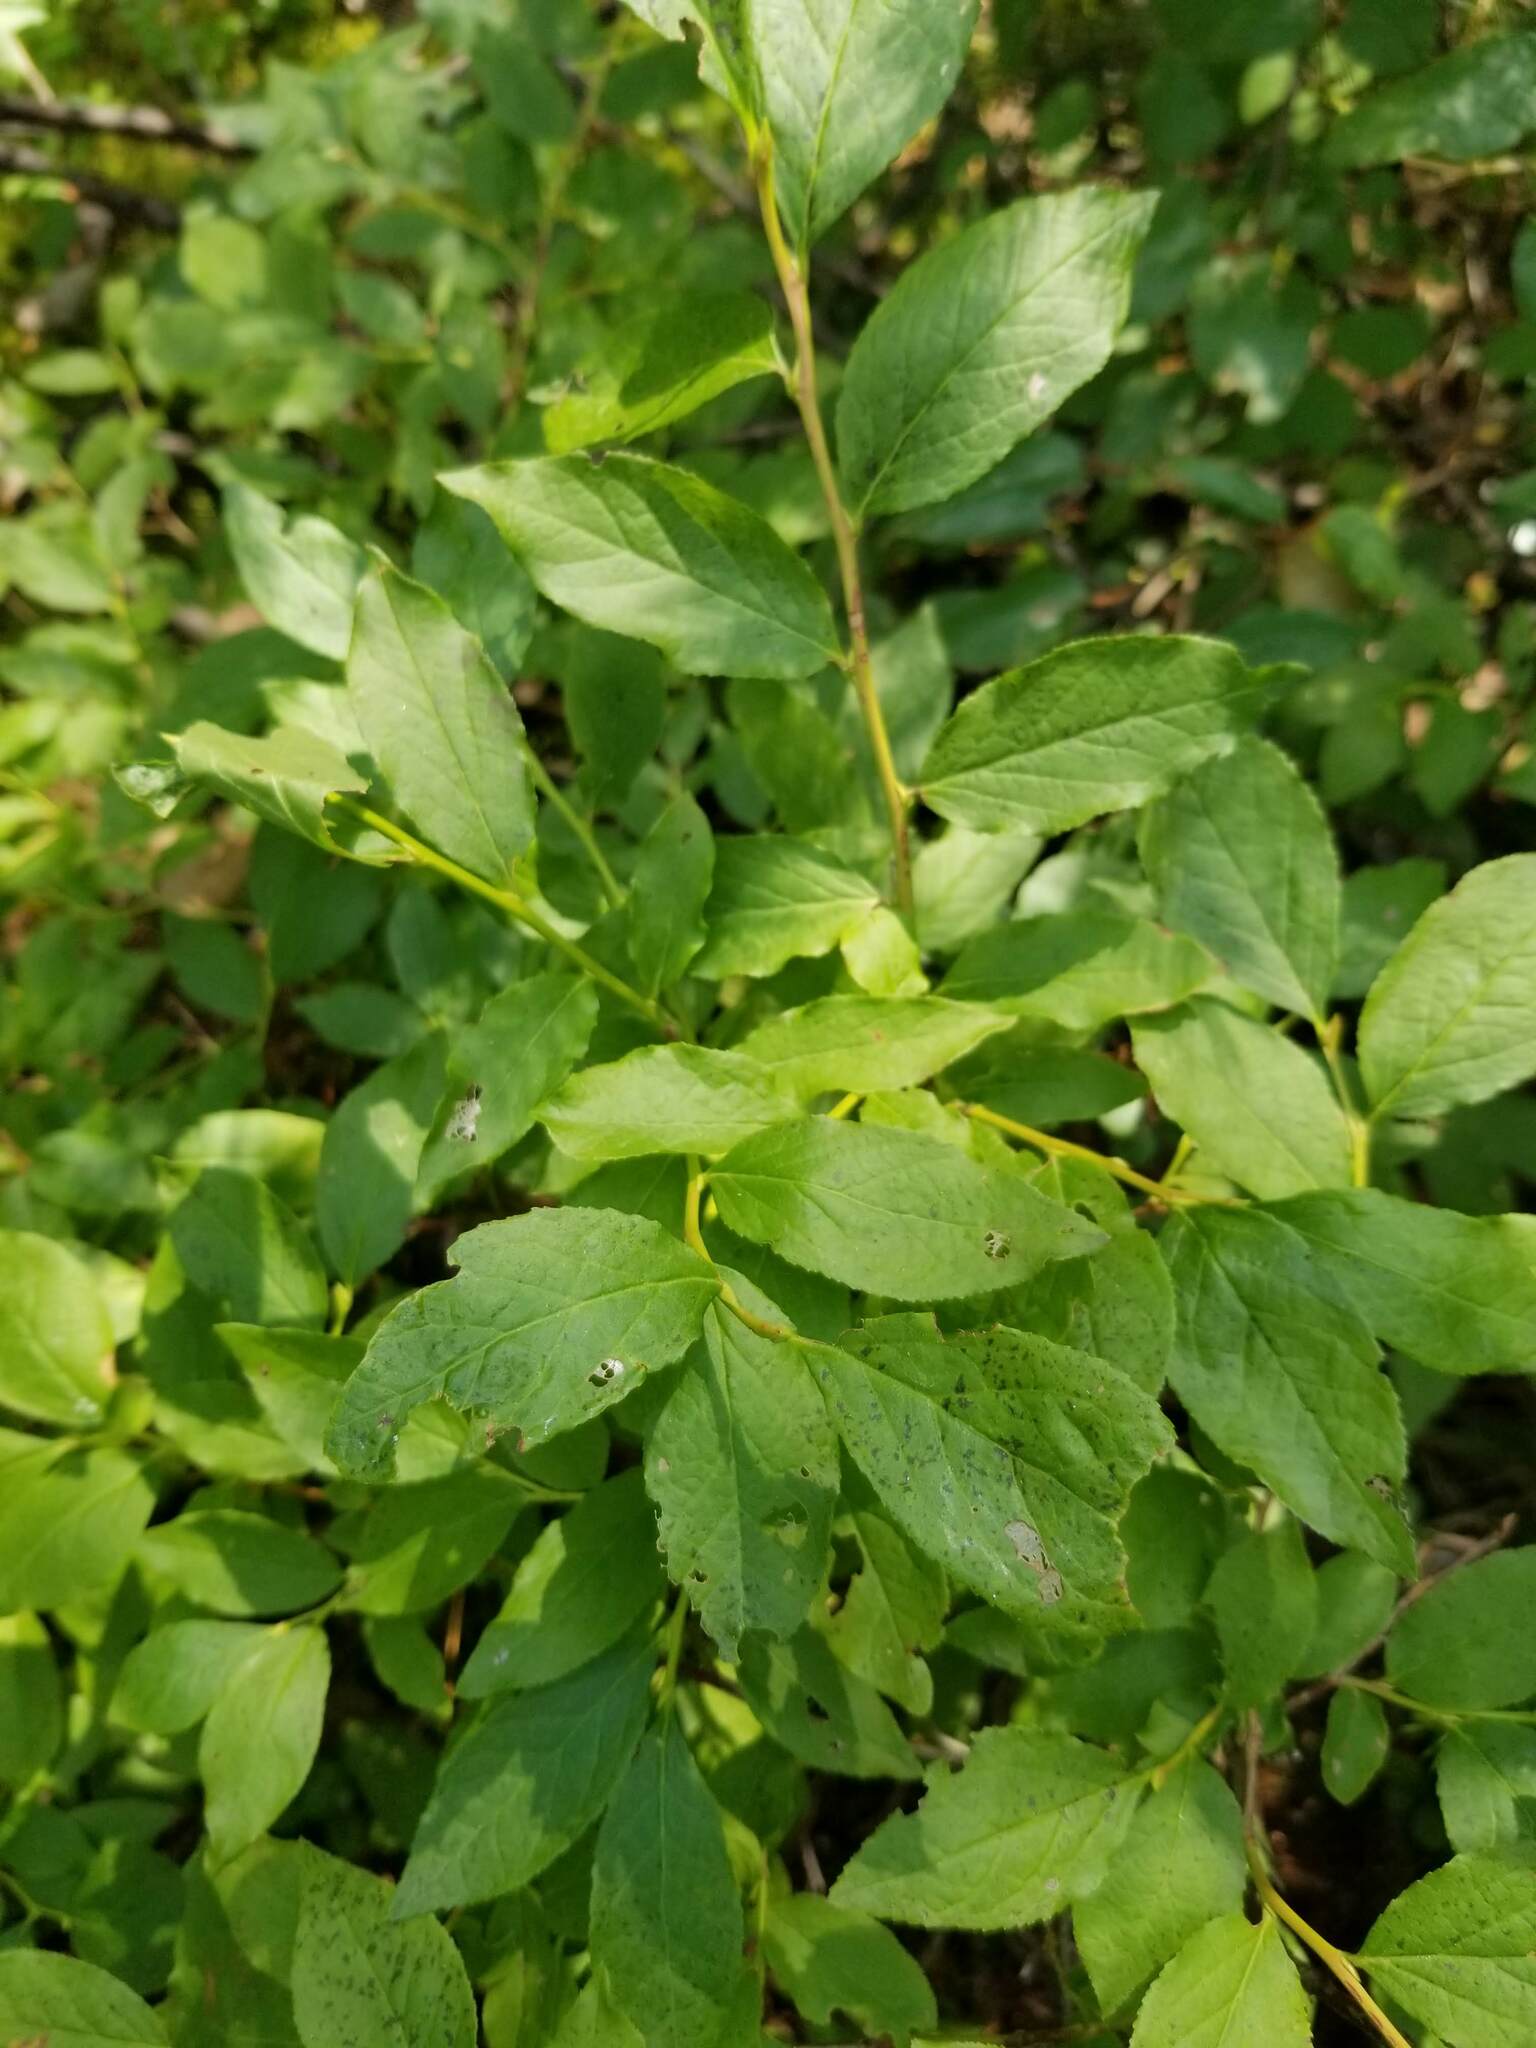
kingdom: Plantae
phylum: Tracheophyta
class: Magnoliopsida
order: Ericales
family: Ericaceae
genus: Vaccinium
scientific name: Vaccinium membranaceum
